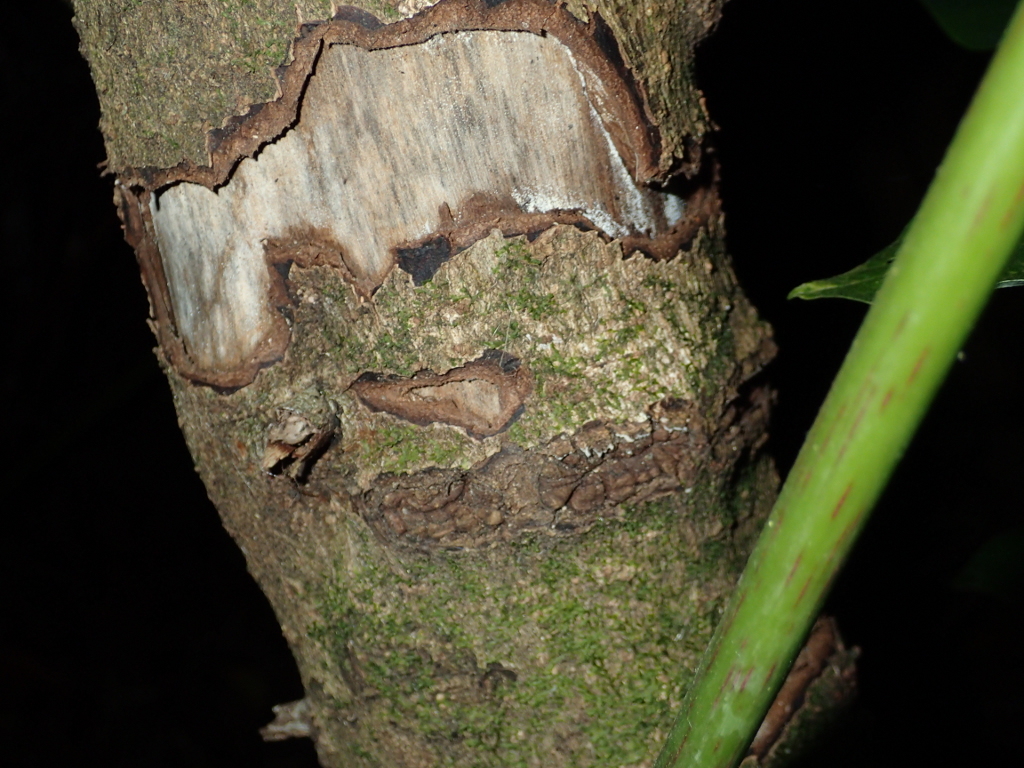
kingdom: Animalia
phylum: Chordata
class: Aves
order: Psittaciformes
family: Psittacidae
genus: Nestor
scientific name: Nestor meridionalis
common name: New zealand kaka
